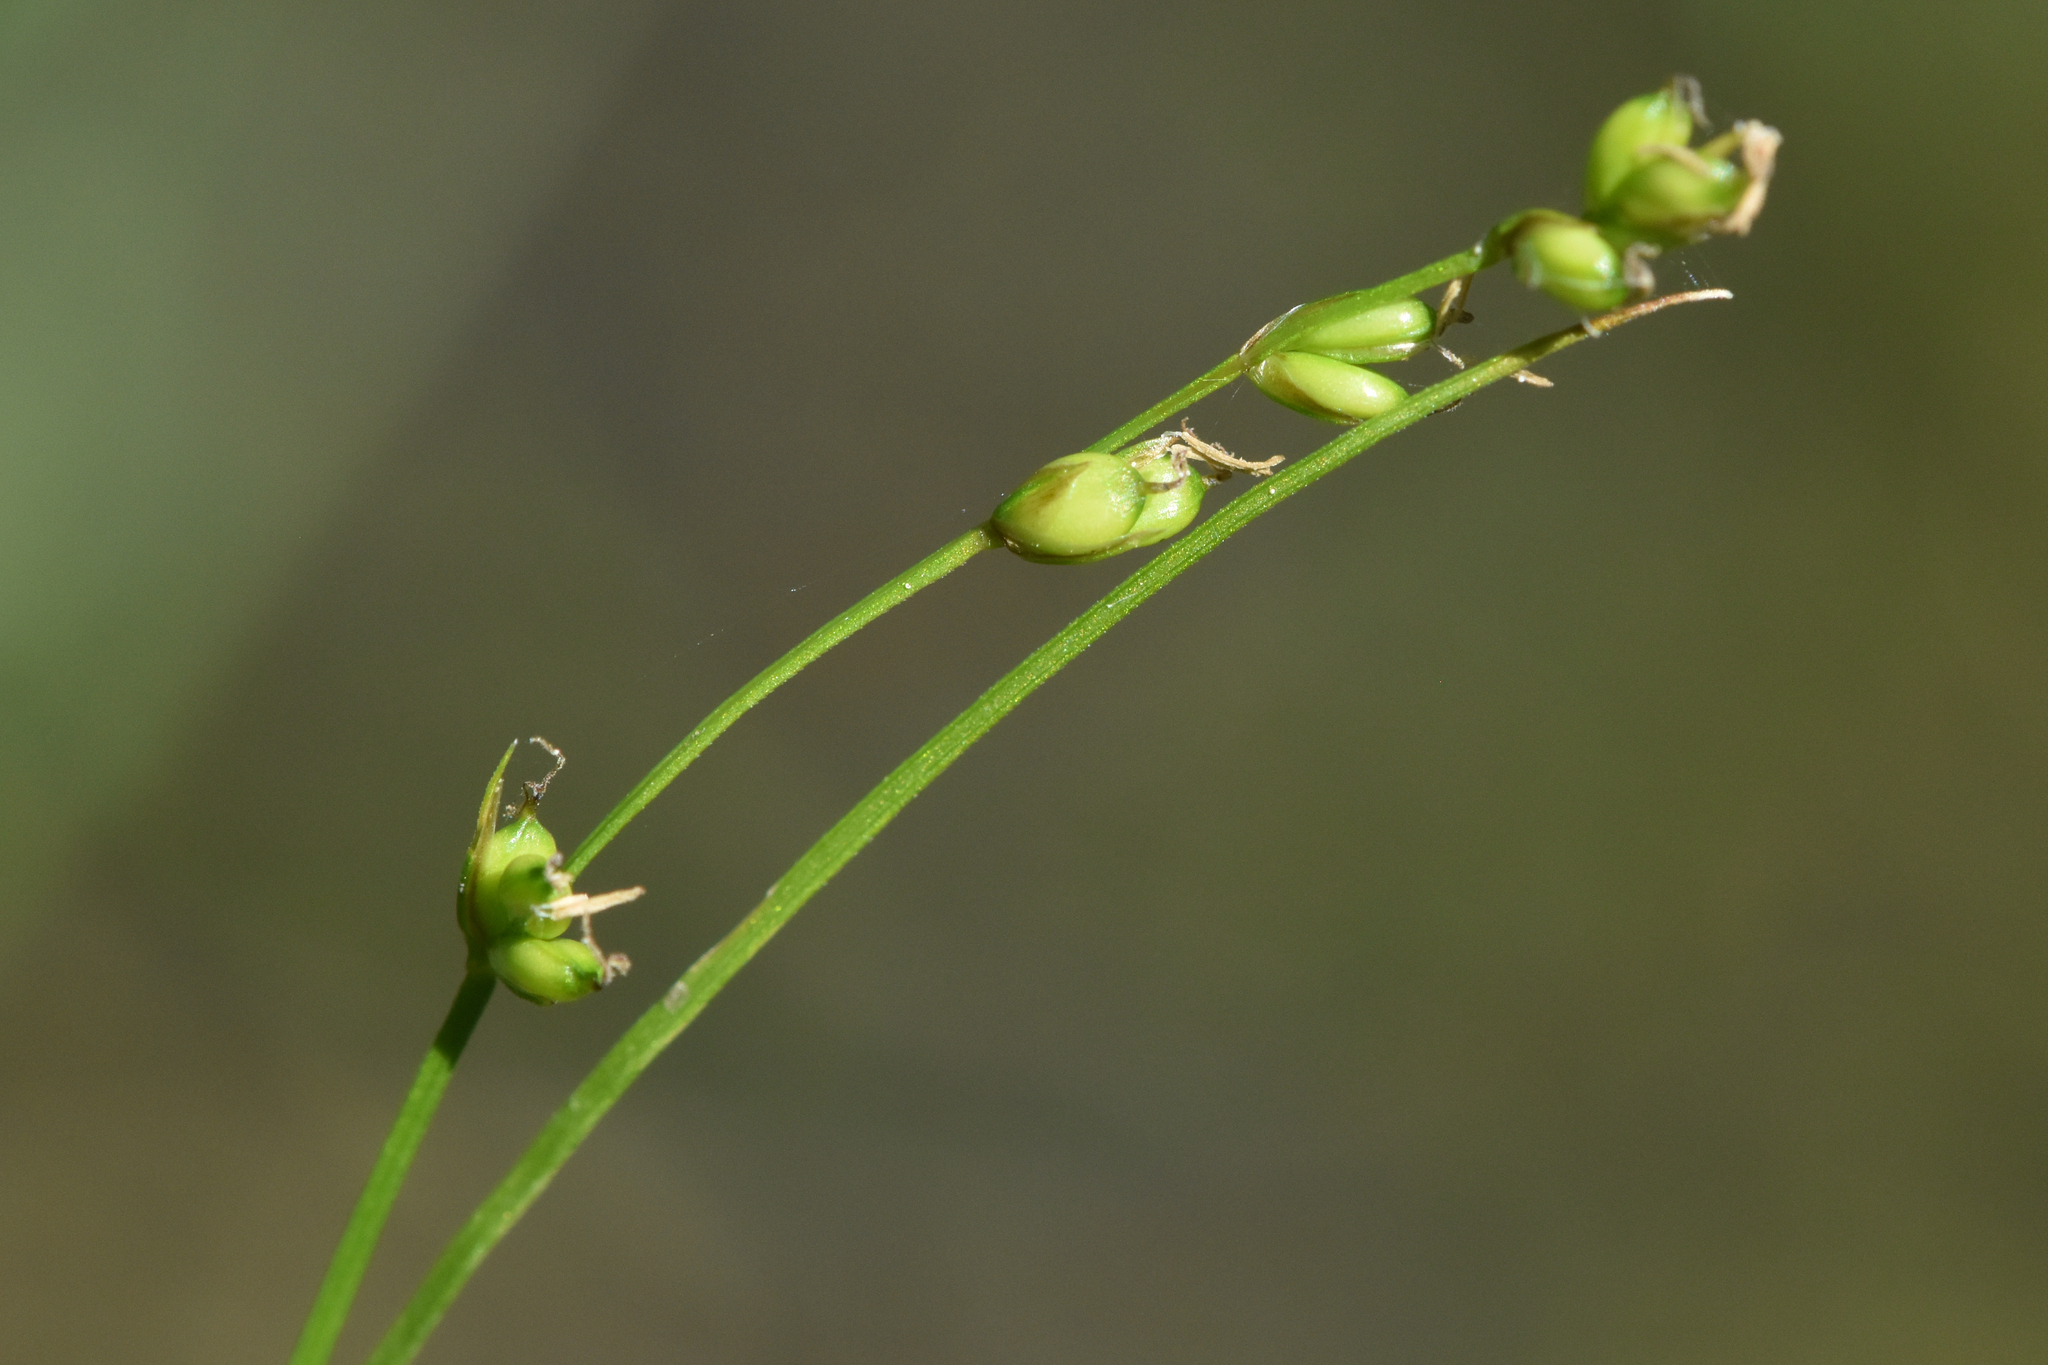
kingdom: Plantae
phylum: Tracheophyta
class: Liliopsida
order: Poales
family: Cyperaceae
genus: Carex
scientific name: Carex disperma
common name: Short-leaved sedge
